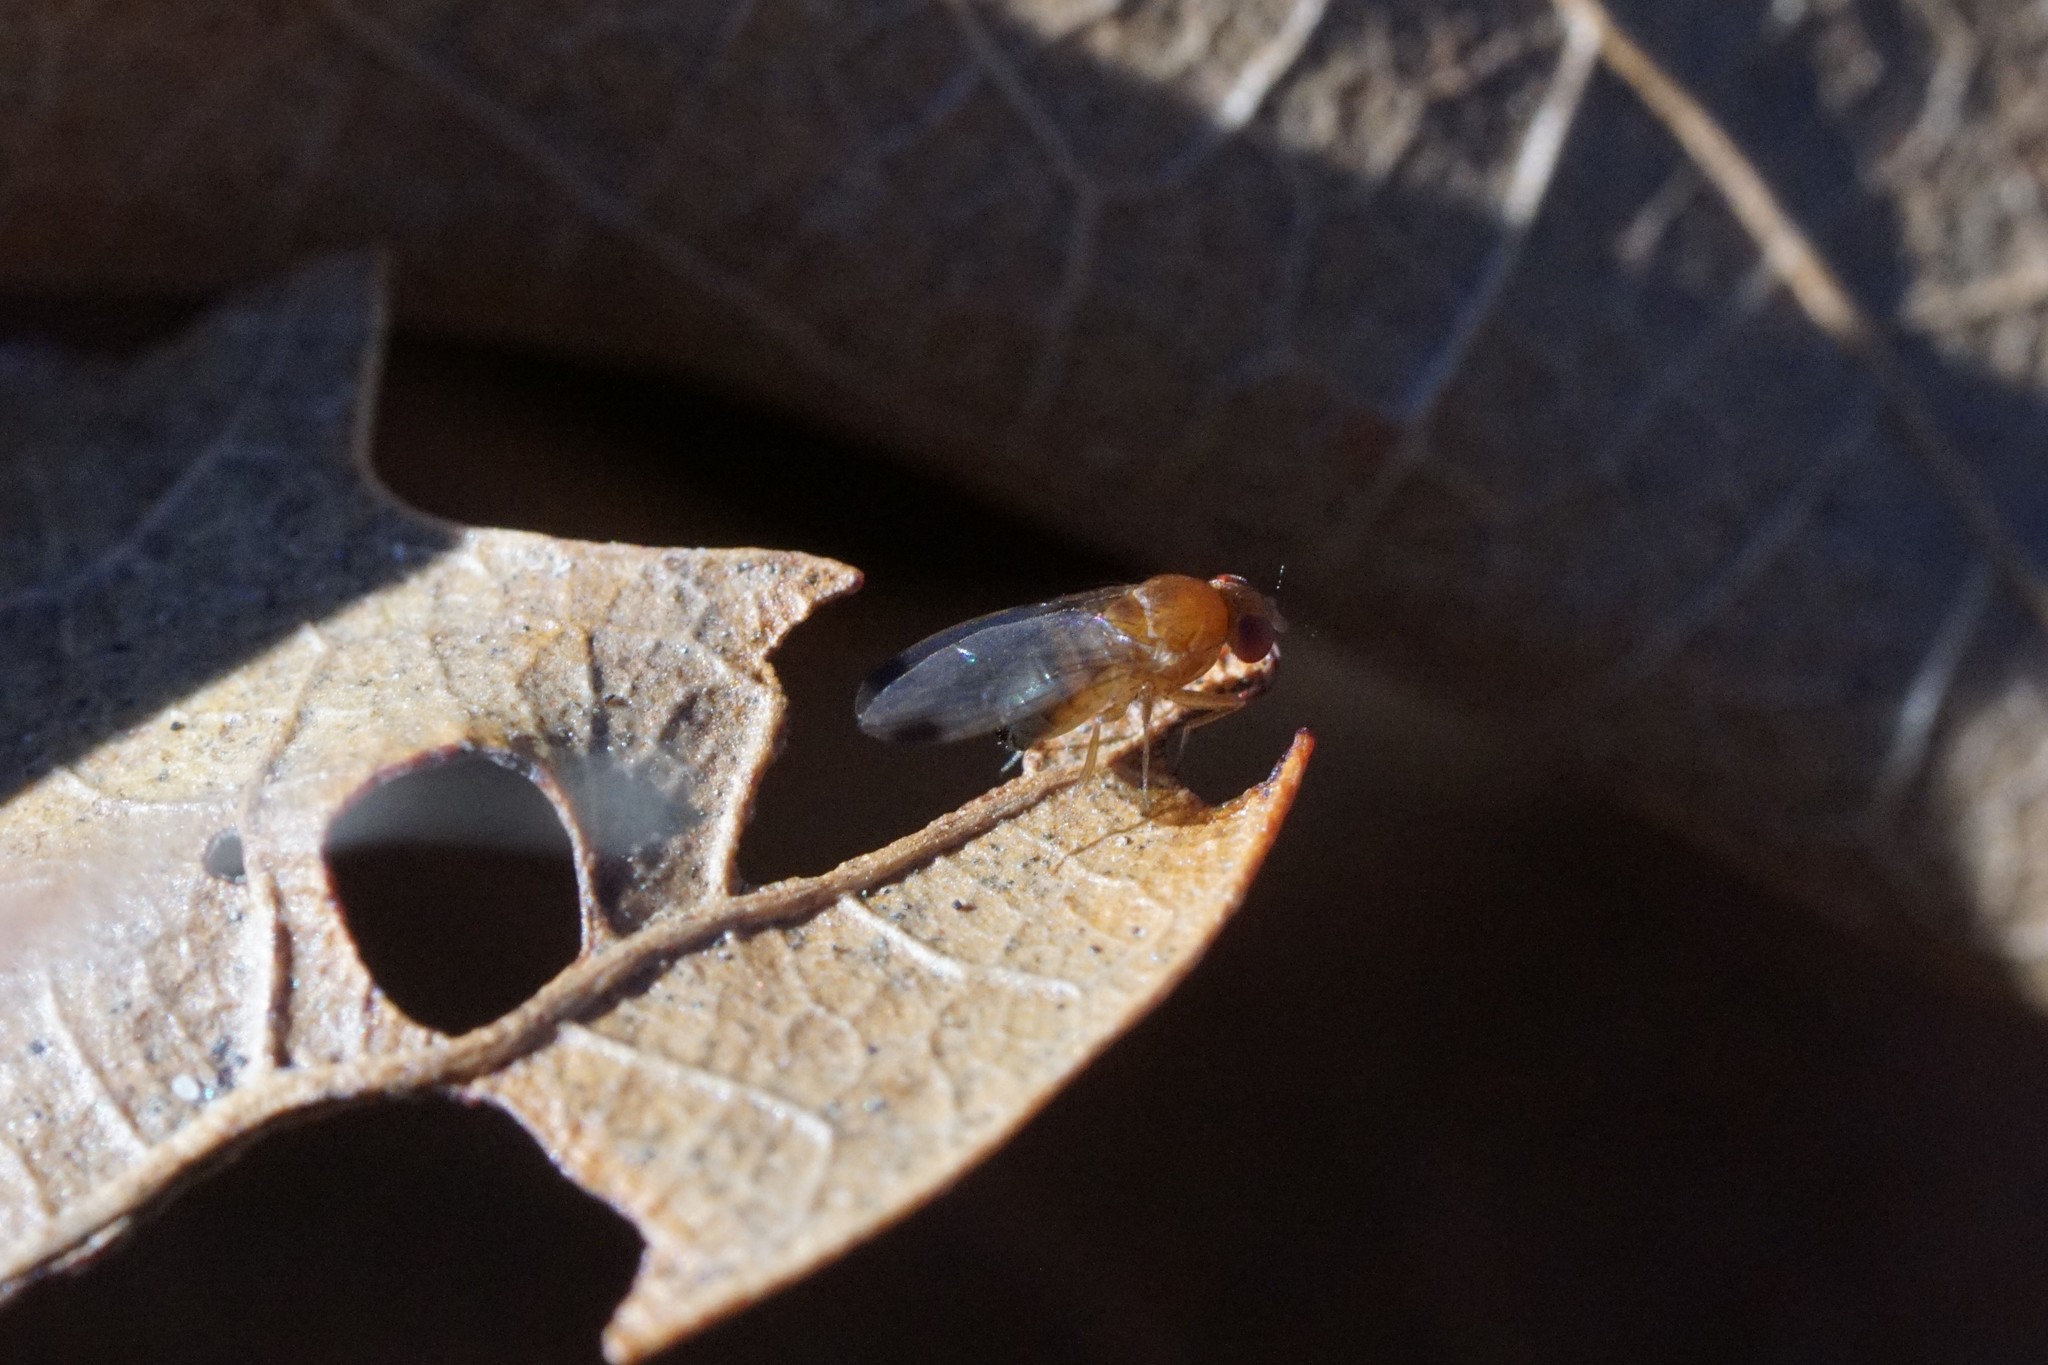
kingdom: Animalia
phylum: Arthropoda
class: Insecta
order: Diptera
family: Drosophilidae
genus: Drosophila
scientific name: Drosophila suzukii
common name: Spotted-wing drosophila
